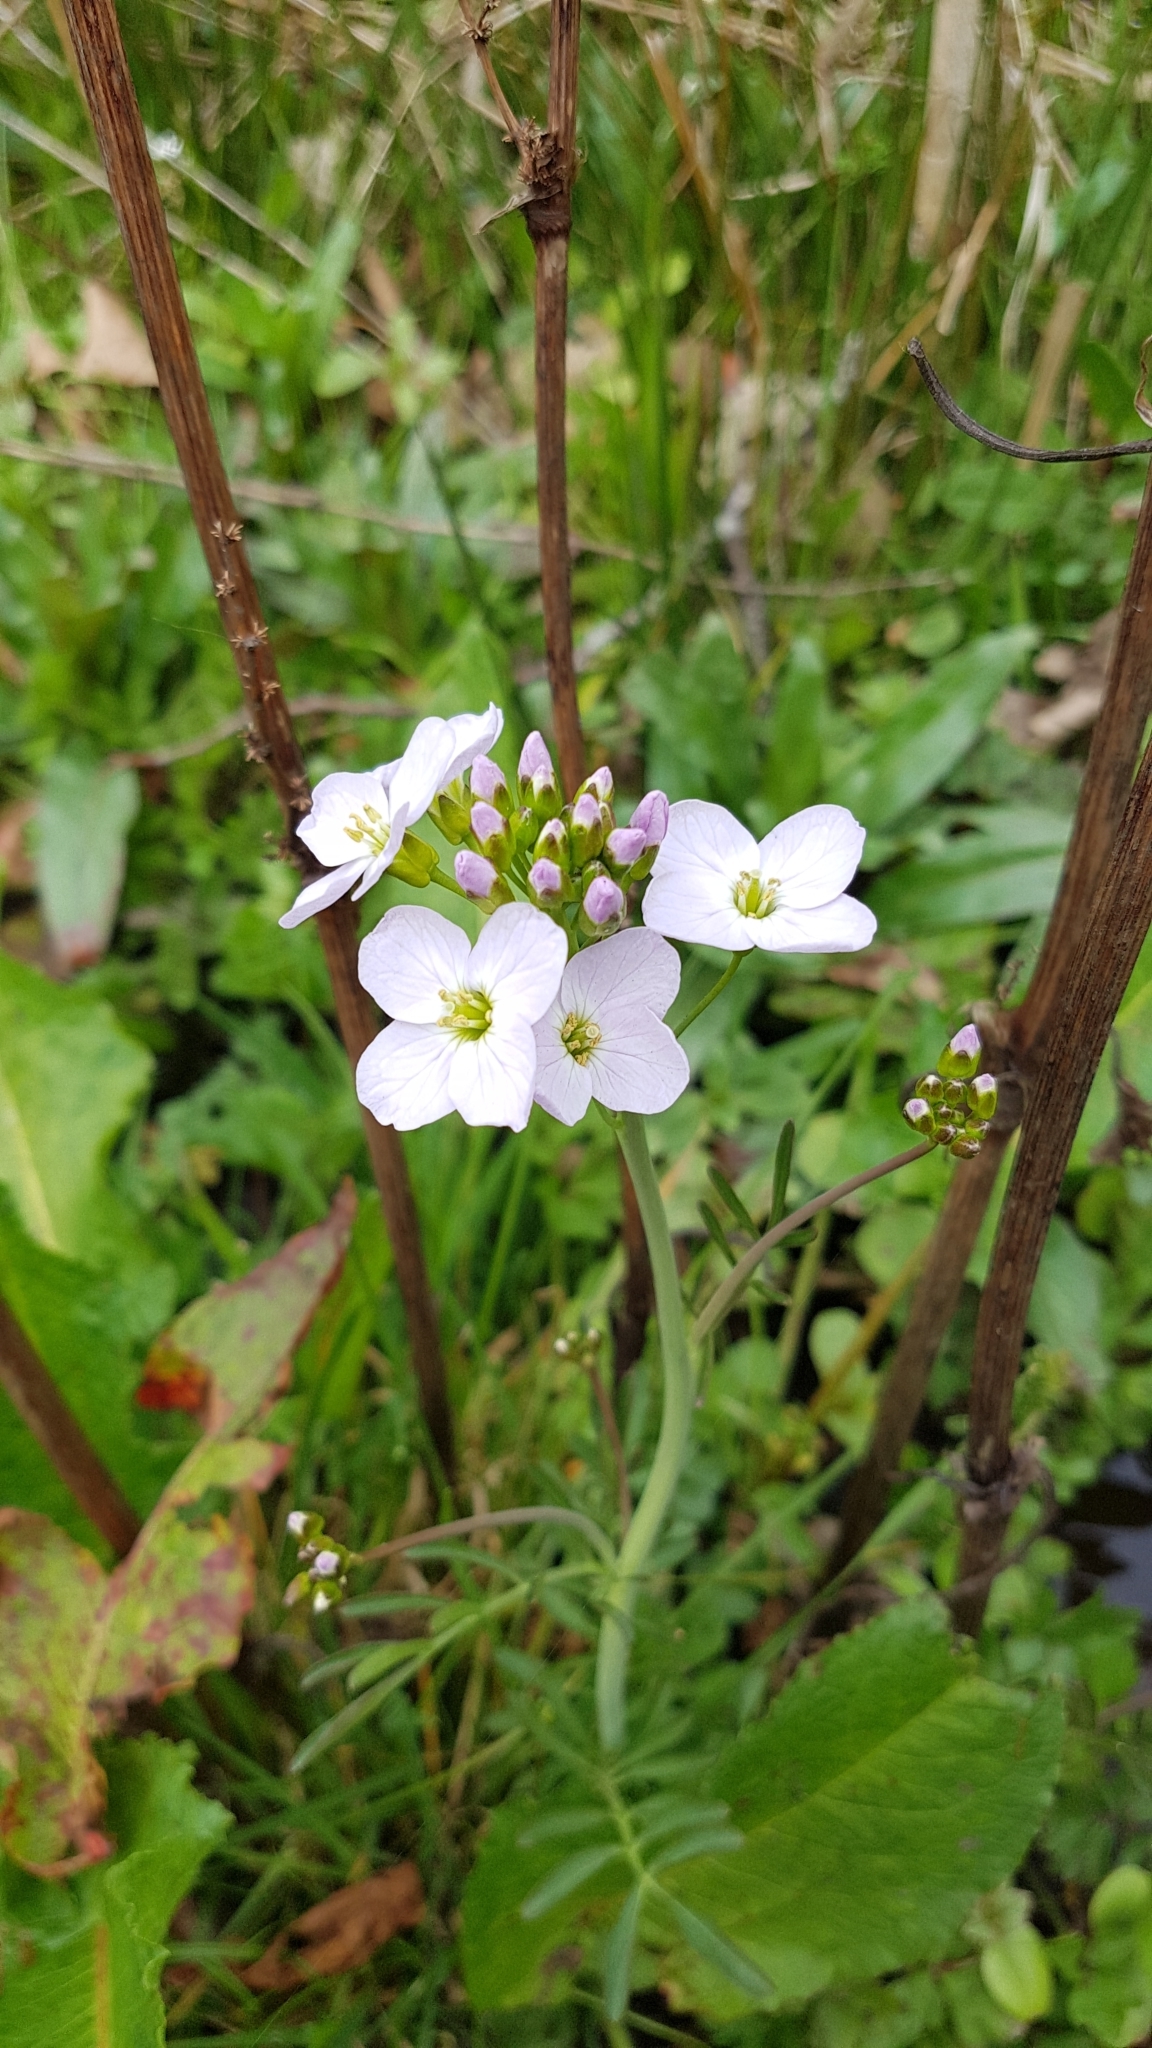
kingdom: Plantae
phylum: Tracheophyta
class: Magnoliopsida
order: Brassicales
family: Brassicaceae
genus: Cardamine
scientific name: Cardamine pratensis
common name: Cuckoo flower
